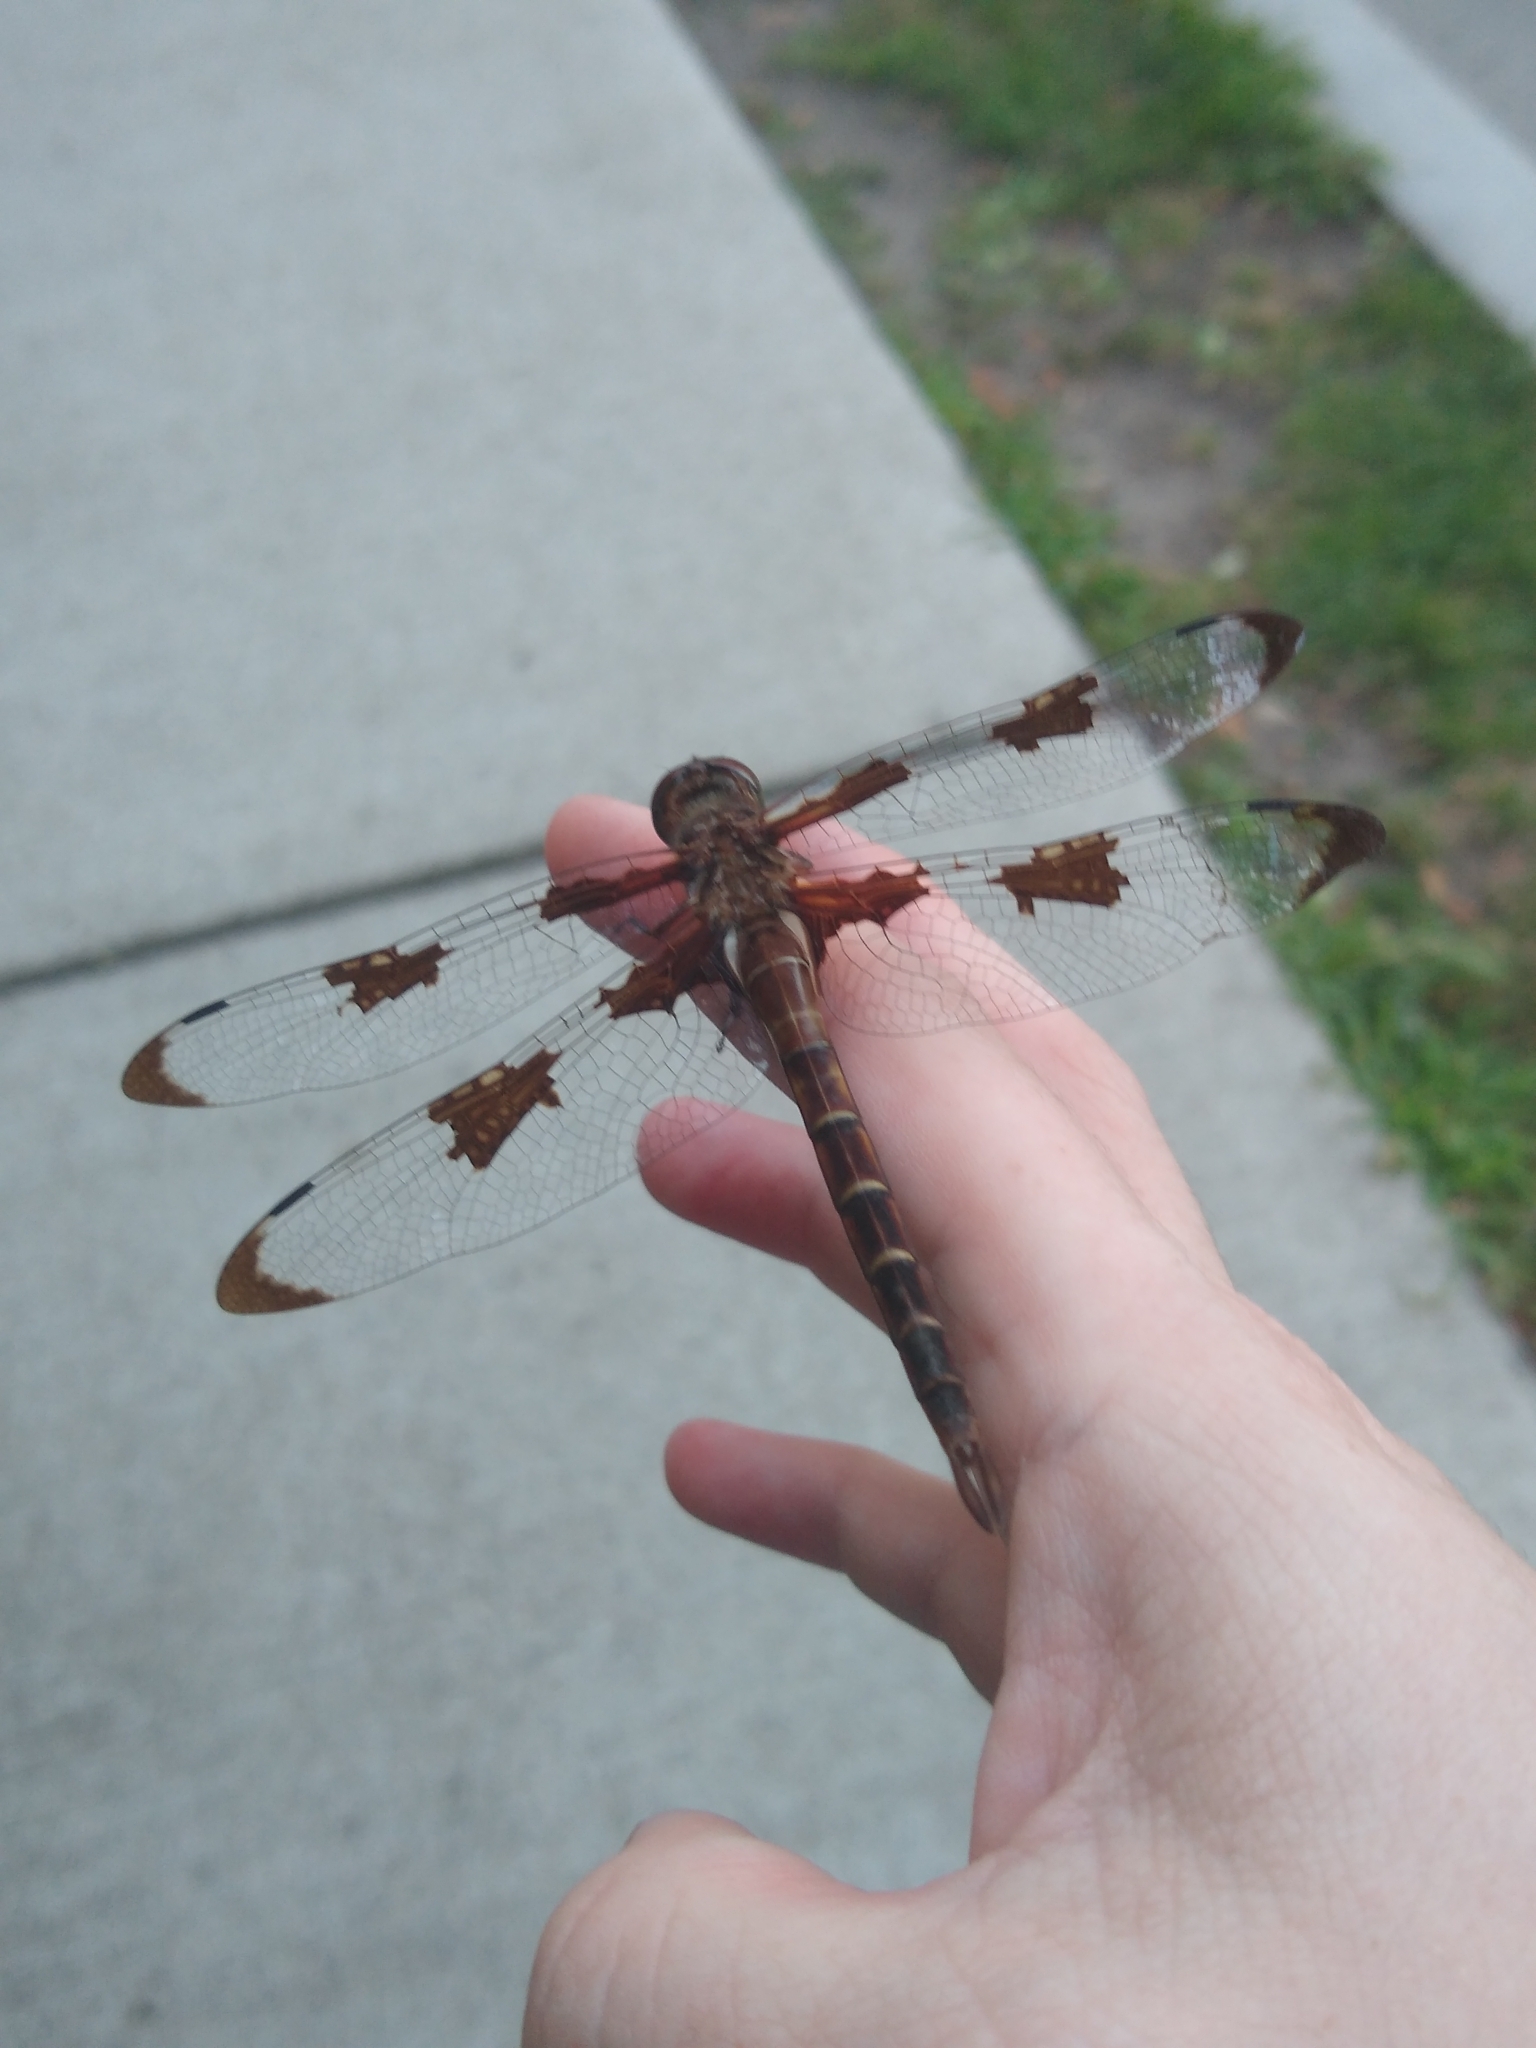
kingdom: Animalia
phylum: Arthropoda
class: Insecta
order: Odonata
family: Corduliidae
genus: Epitheca
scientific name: Epitheca princeps
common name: Prince baskettail
